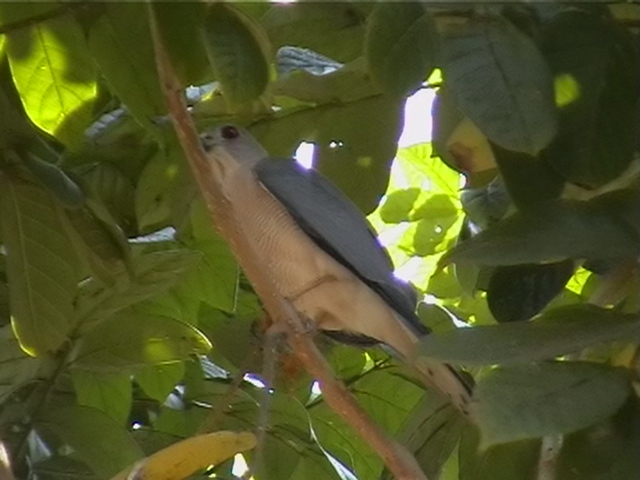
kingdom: Animalia
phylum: Chordata
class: Aves
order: Accipitriformes
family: Accipitridae
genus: Accipiter
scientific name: Accipiter badius
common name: Shikra
